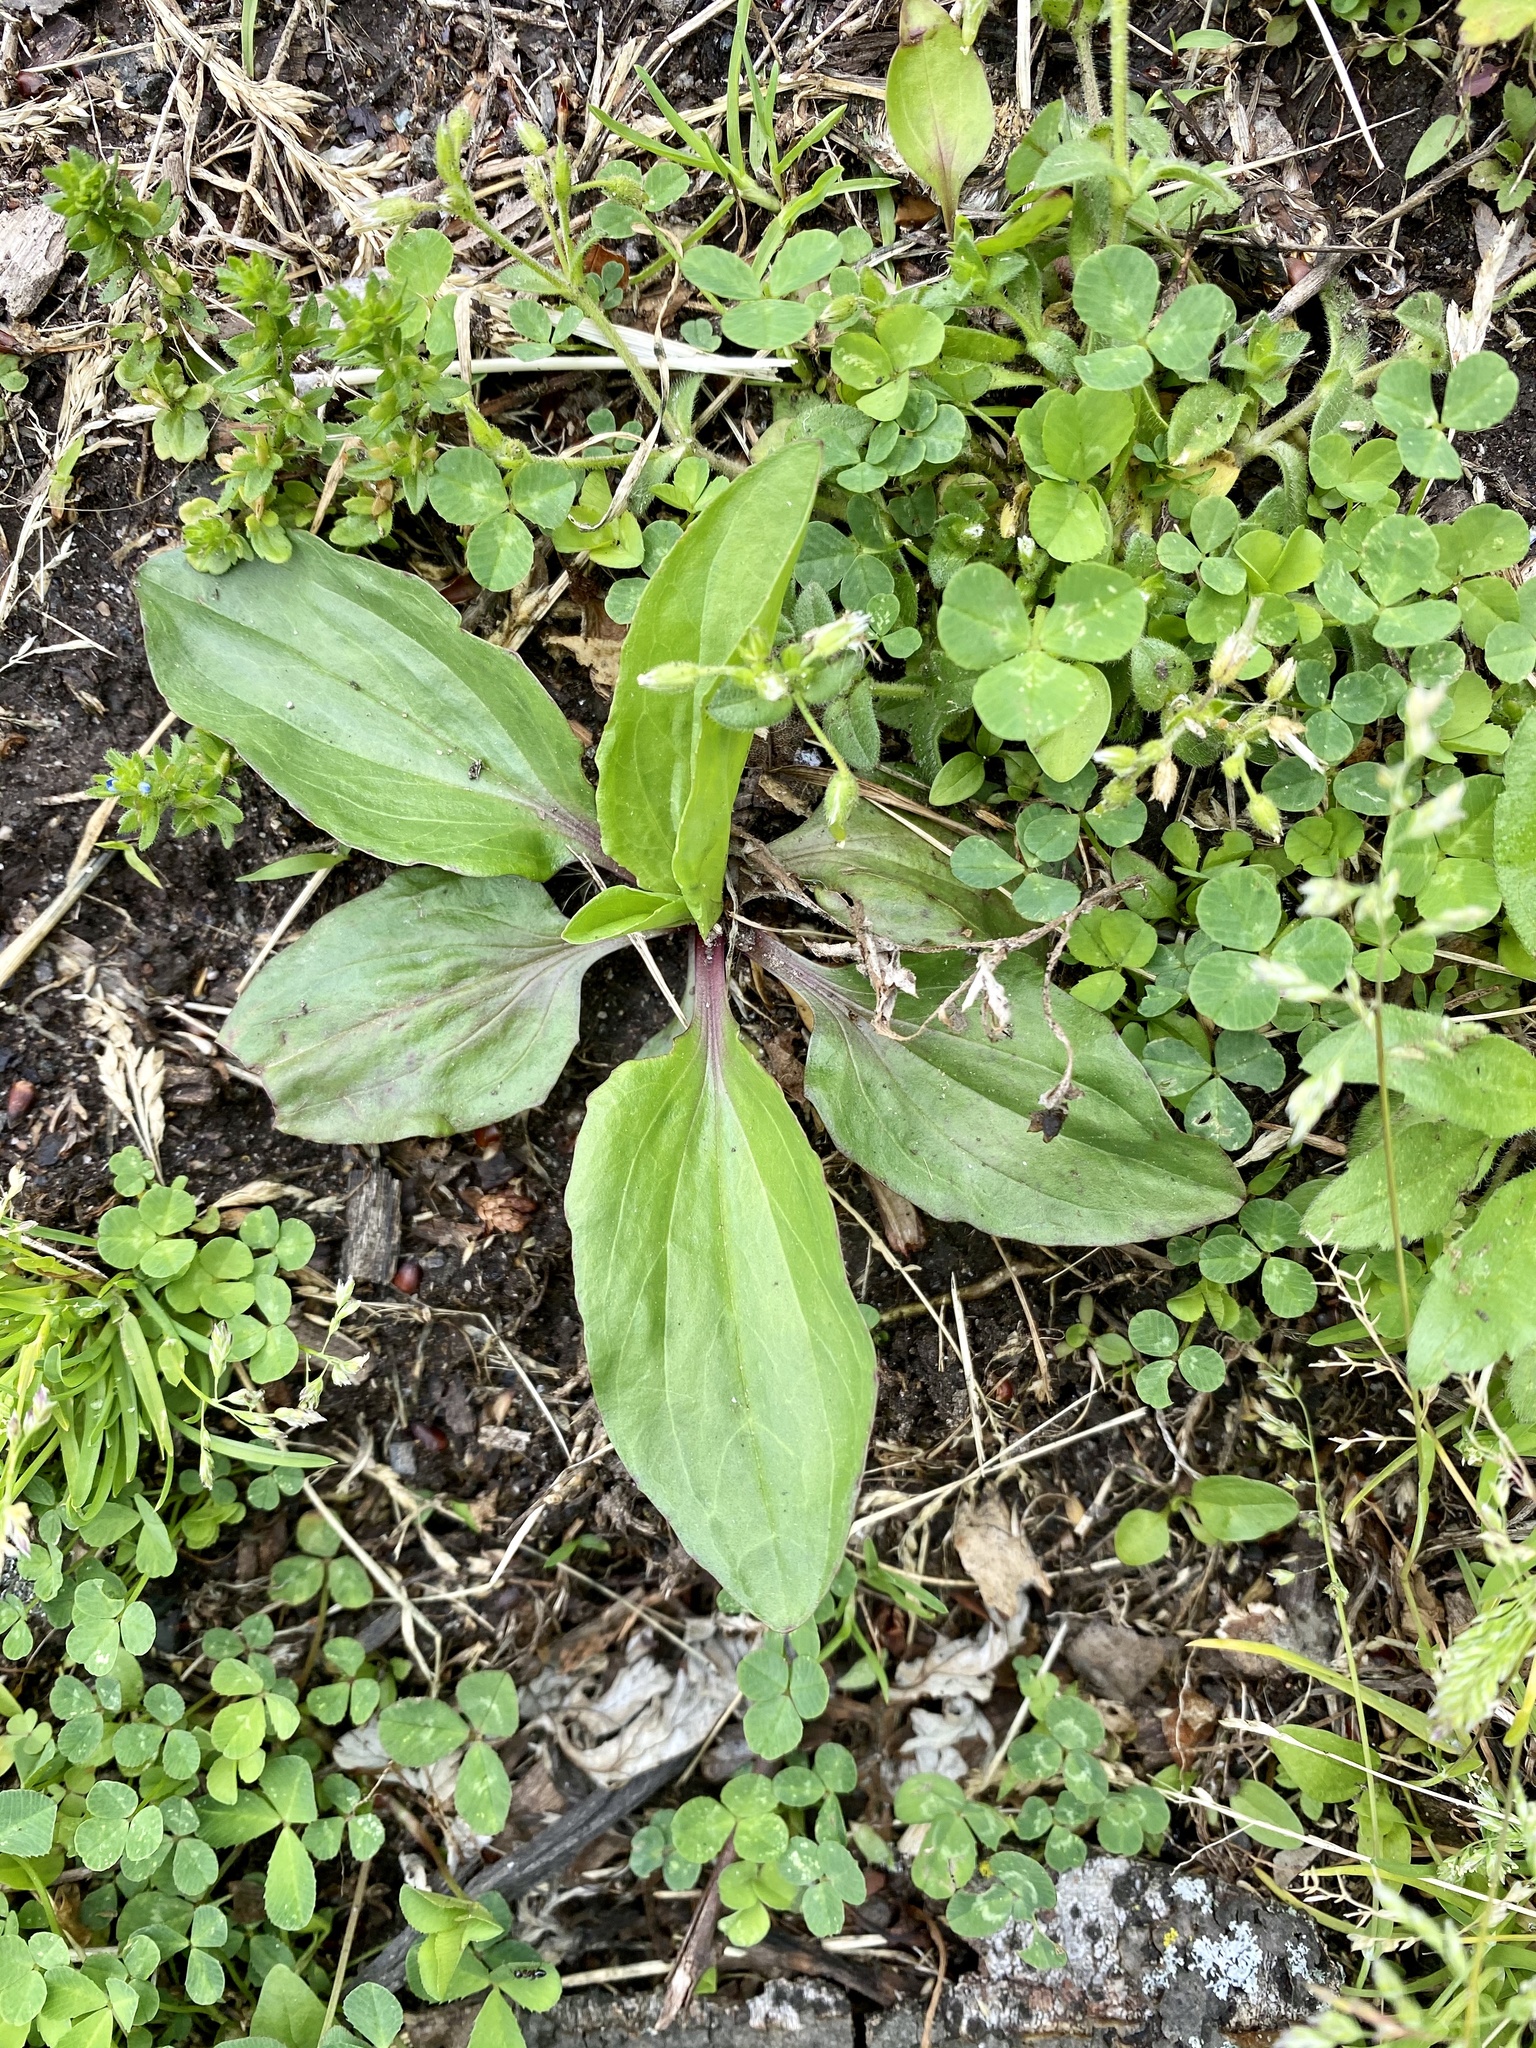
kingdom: Plantae
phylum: Tracheophyta
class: Magnoliopsida
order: Lamiales
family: Plantaginaceae
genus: Plantago
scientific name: Plantago rugelii
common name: American plantain
